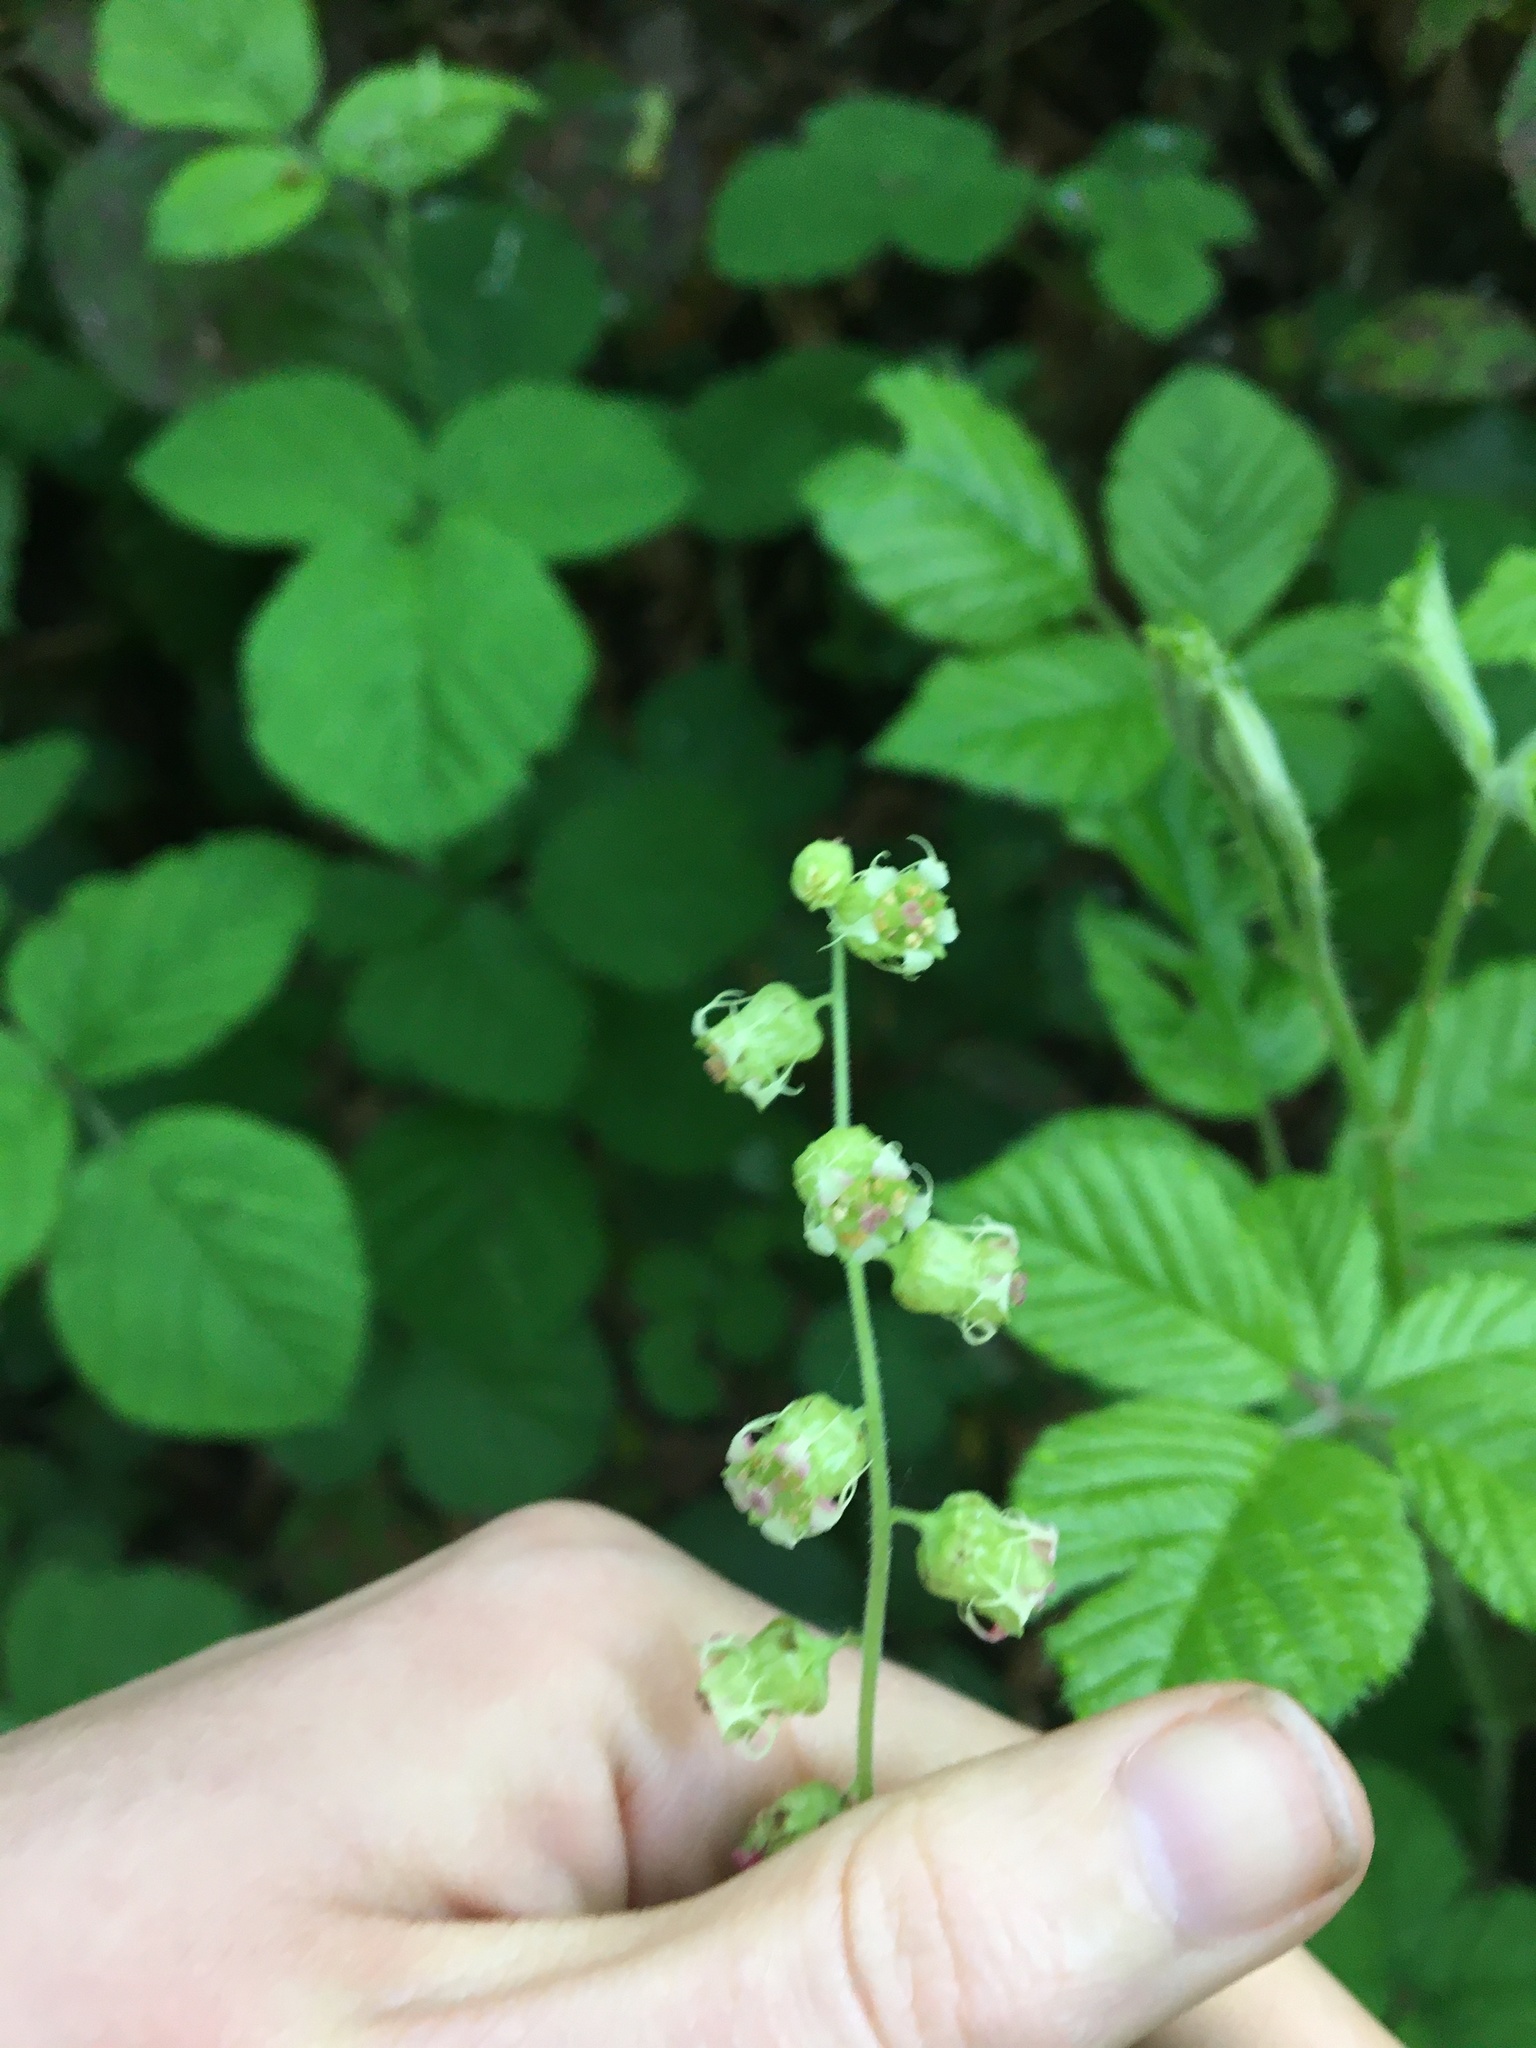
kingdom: Plantae
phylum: Tracheophyta
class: Magnoliopsida
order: Saxifragales
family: Saxifragaceae
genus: Tellima
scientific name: Tellima grandiflora
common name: Fringecups
